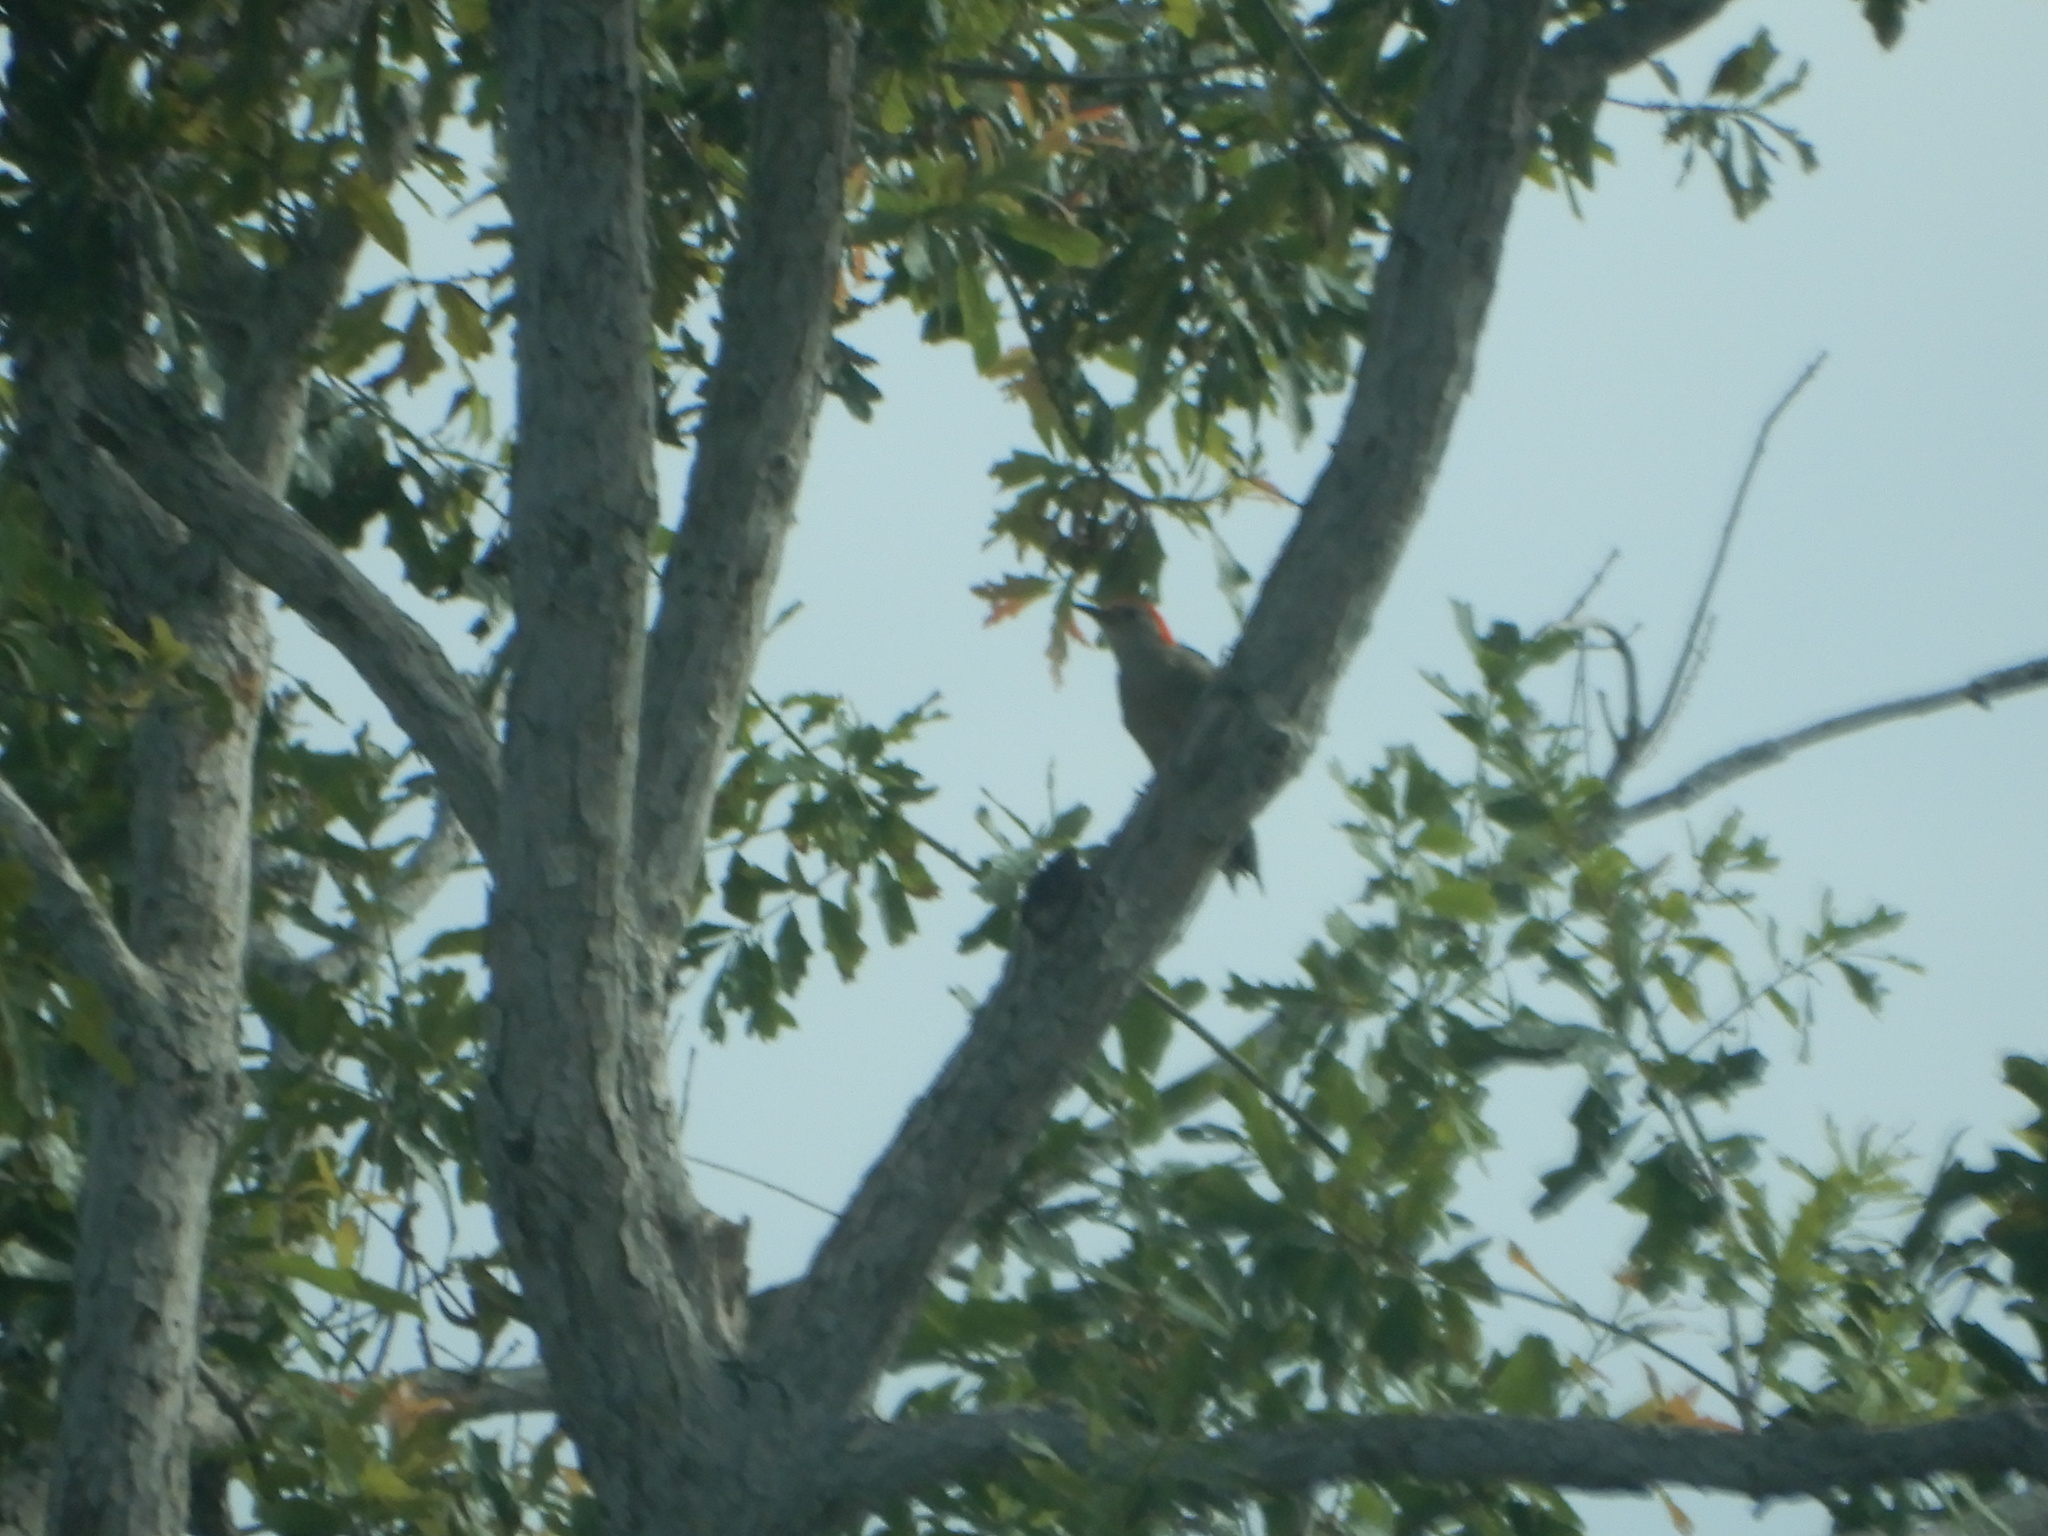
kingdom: Animalia
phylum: Chordata
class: Aves
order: Piciformes
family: Picidae
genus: Melanerpes
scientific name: Melanerpes carolinus
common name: Red-bellied woodpecker
